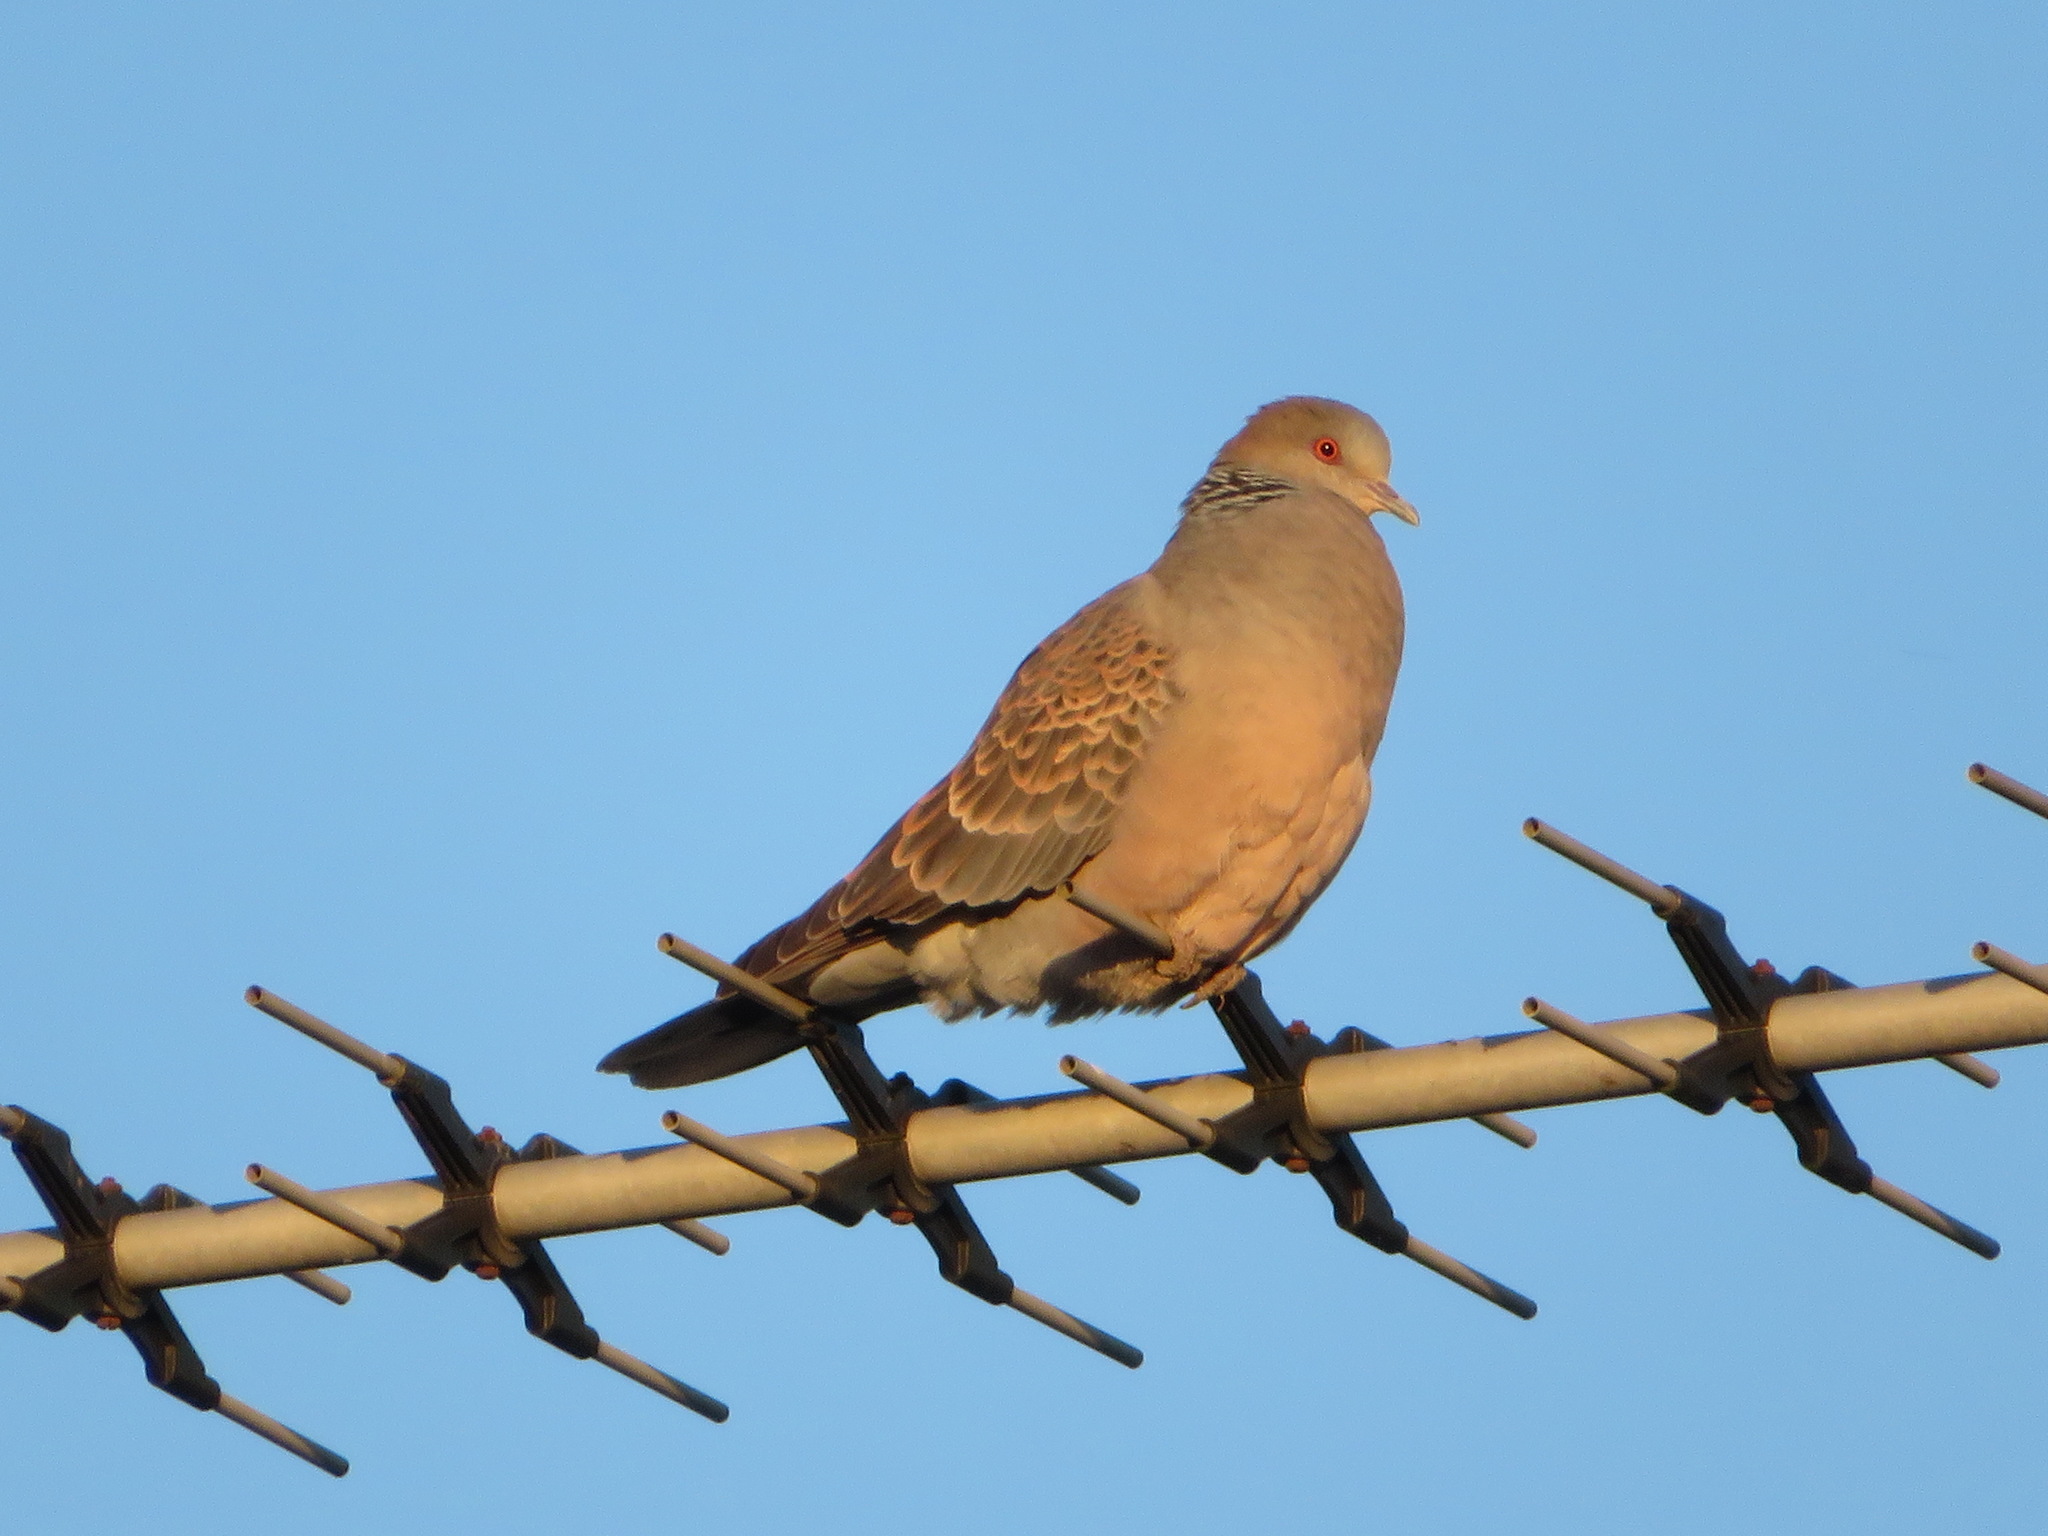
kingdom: Animalia
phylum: Chordata
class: Aves
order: Columbiformes
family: Columbidae
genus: Streptopelia
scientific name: Streptopelia orientalis
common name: Oriental turtle dove
